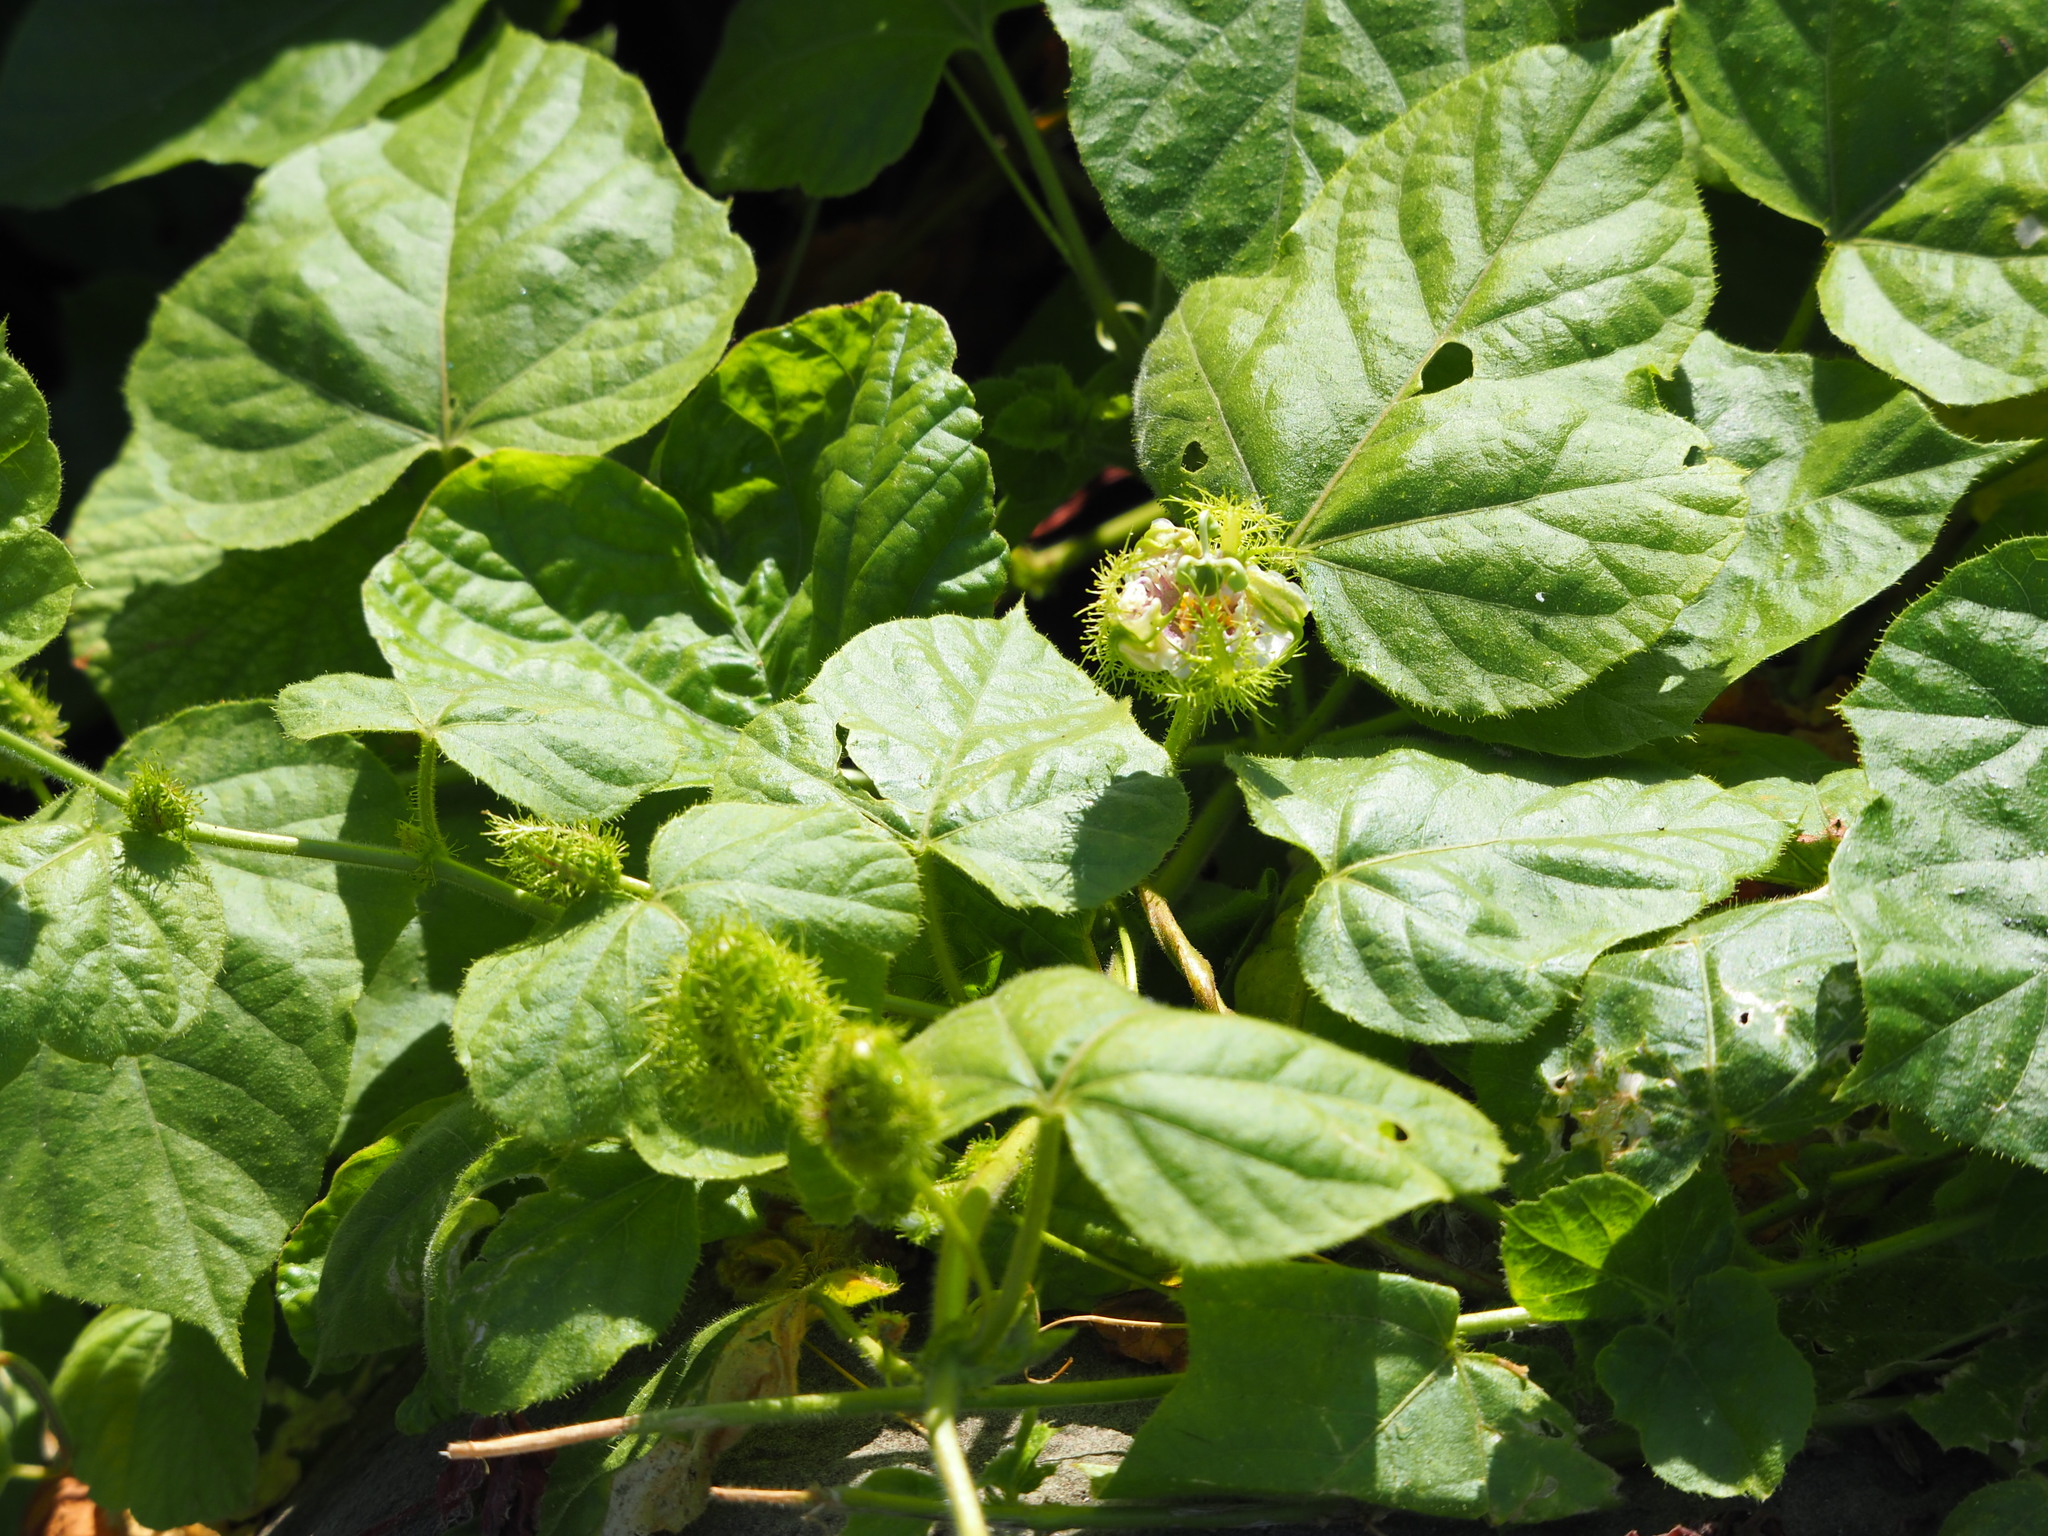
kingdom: Plantae
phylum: Tracheophyta
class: Magnoliopsida
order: Malpighiales
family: Passifloraceae
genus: Passiflora
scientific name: Passiflora vesicaria
